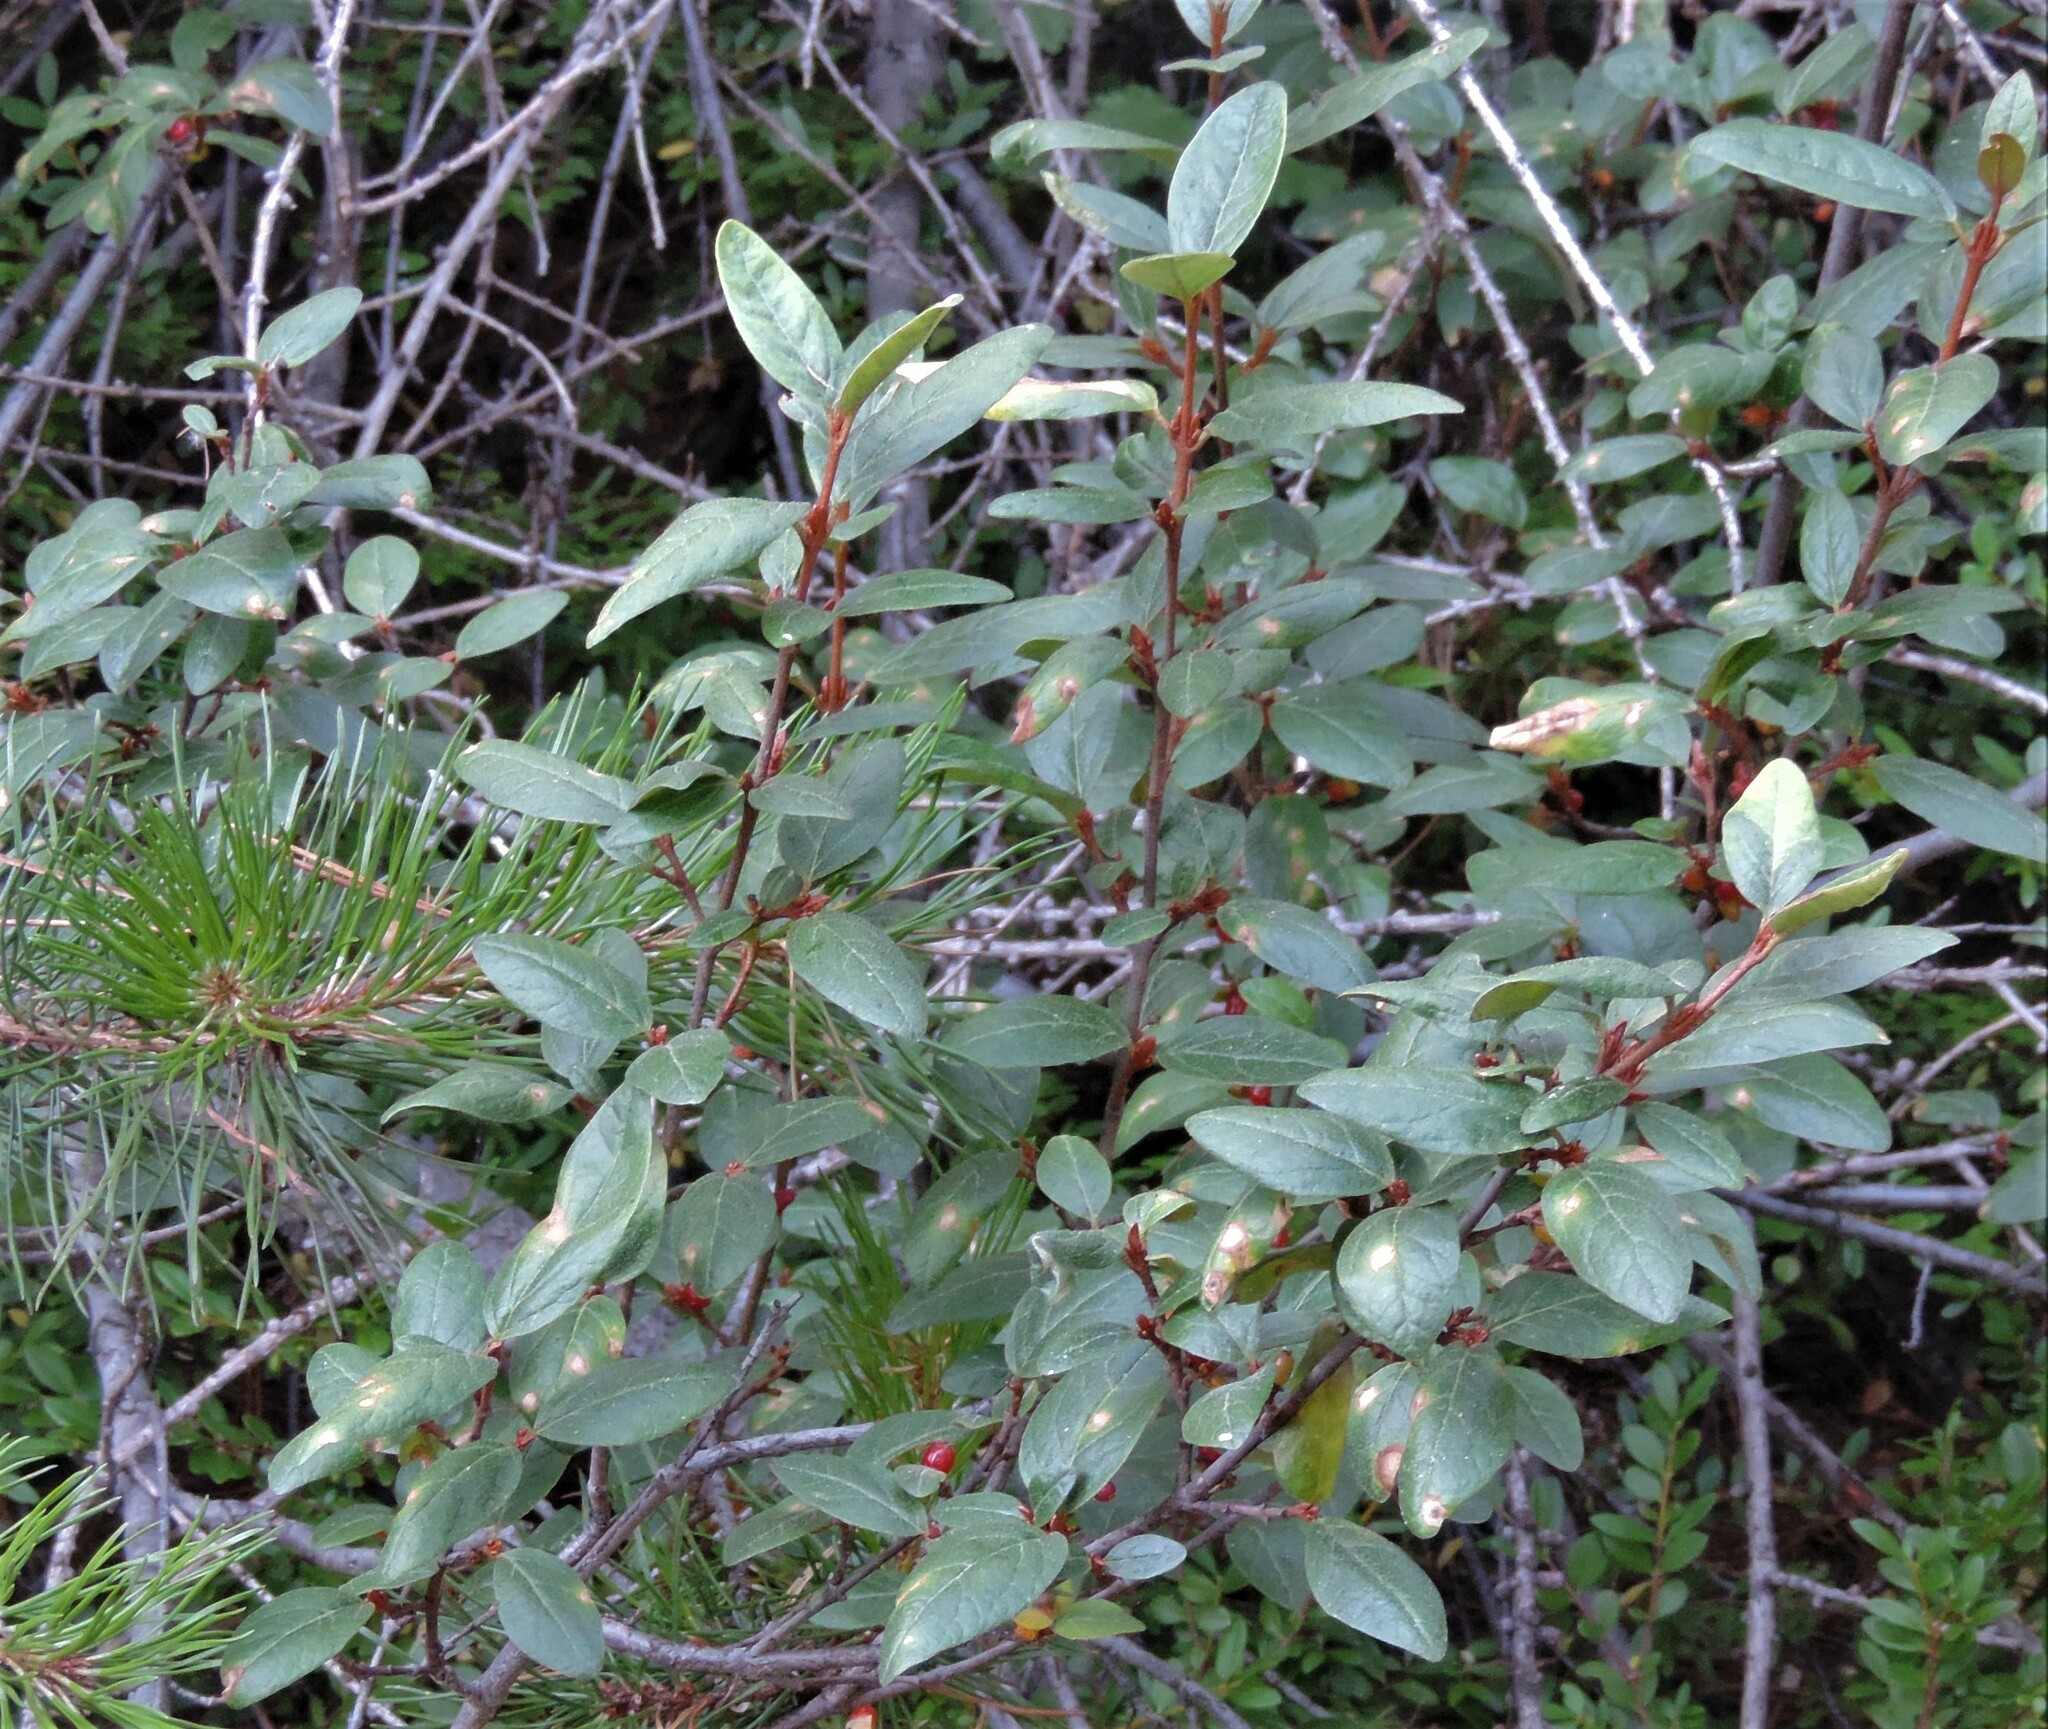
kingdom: Plantae
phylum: Tracheophyta
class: Magnoliopsida
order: Rosales
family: Elaeagnaceae
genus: Shepherdia
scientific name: Shepherdia canadensis
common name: Soapberry
